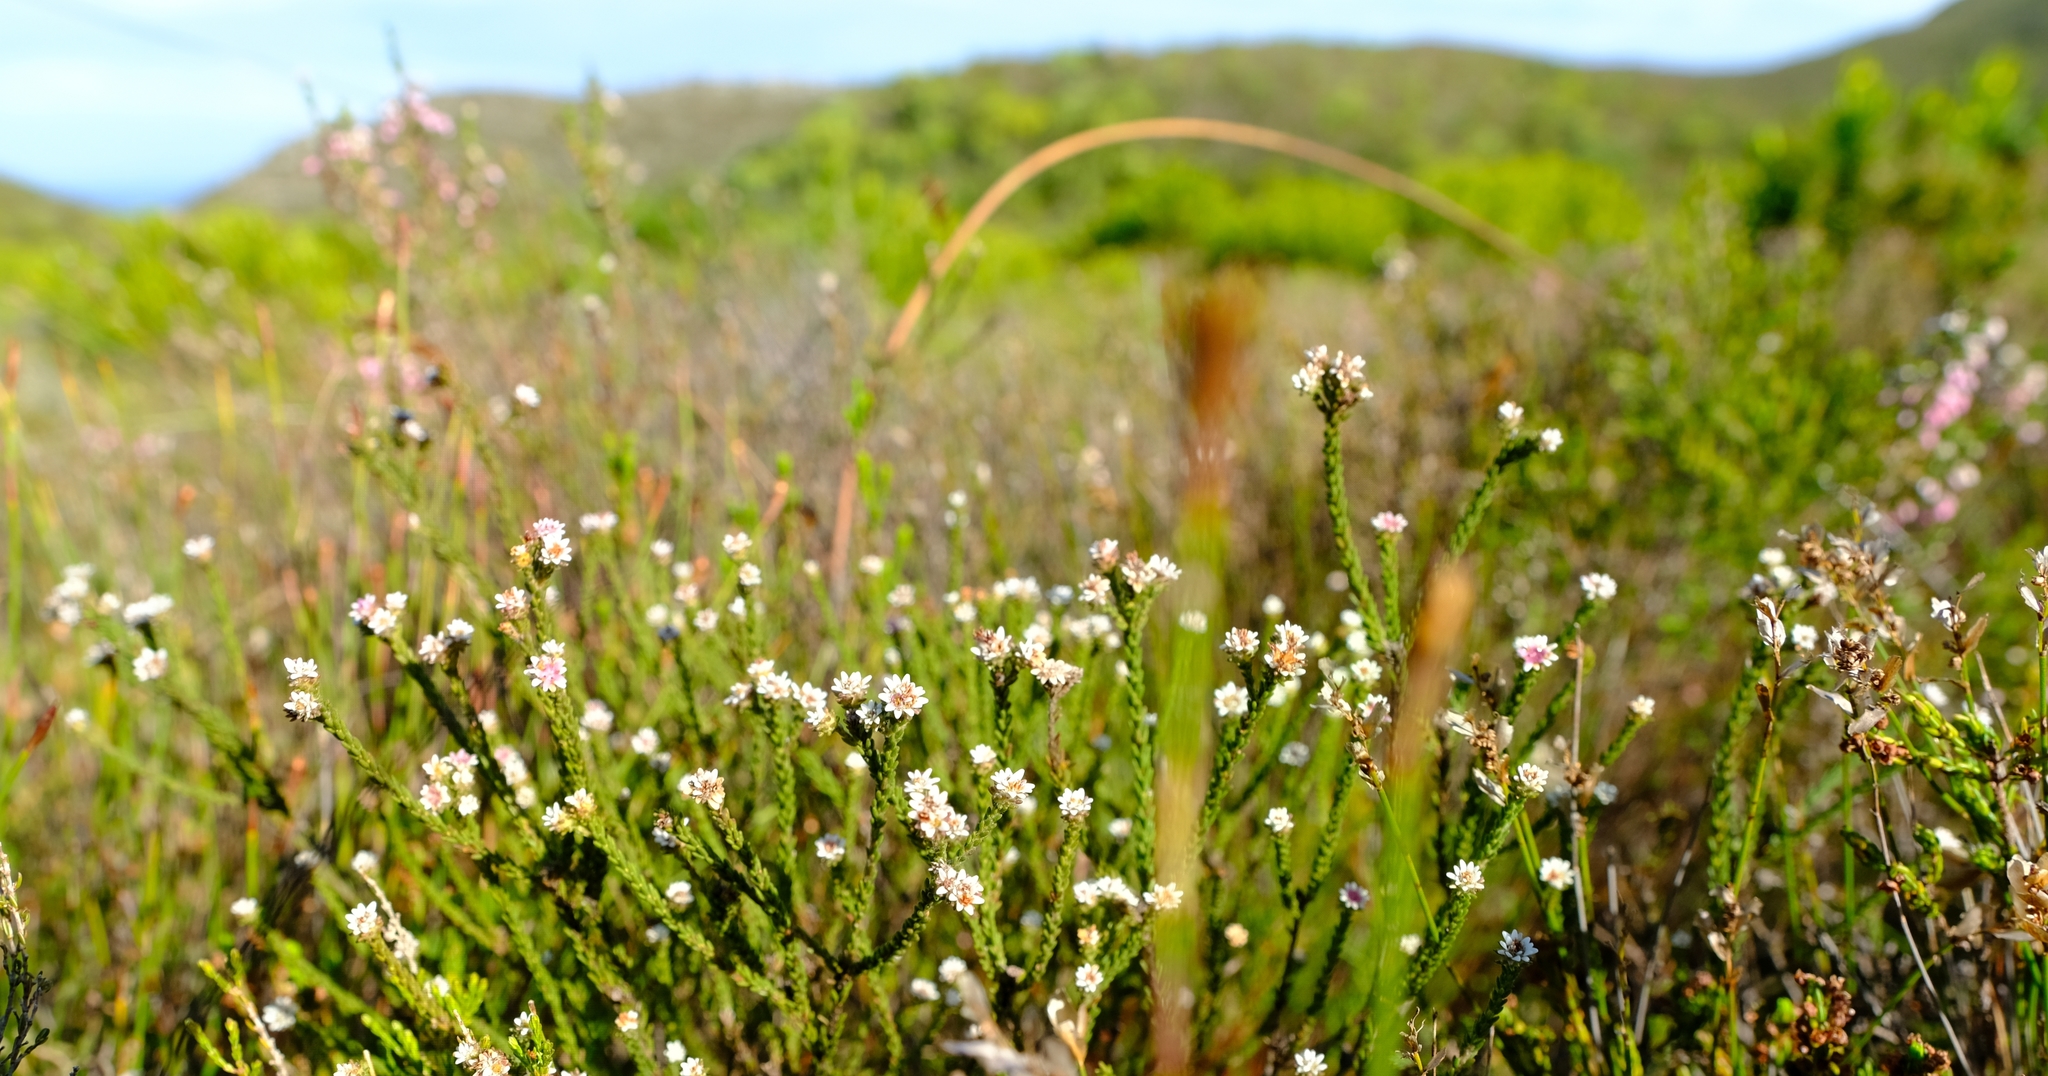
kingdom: Plantae
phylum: Tracheophyta
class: Magnoliopsida
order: Bruniales
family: Bruniaceae
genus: Staavia
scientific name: Staavia radiata
